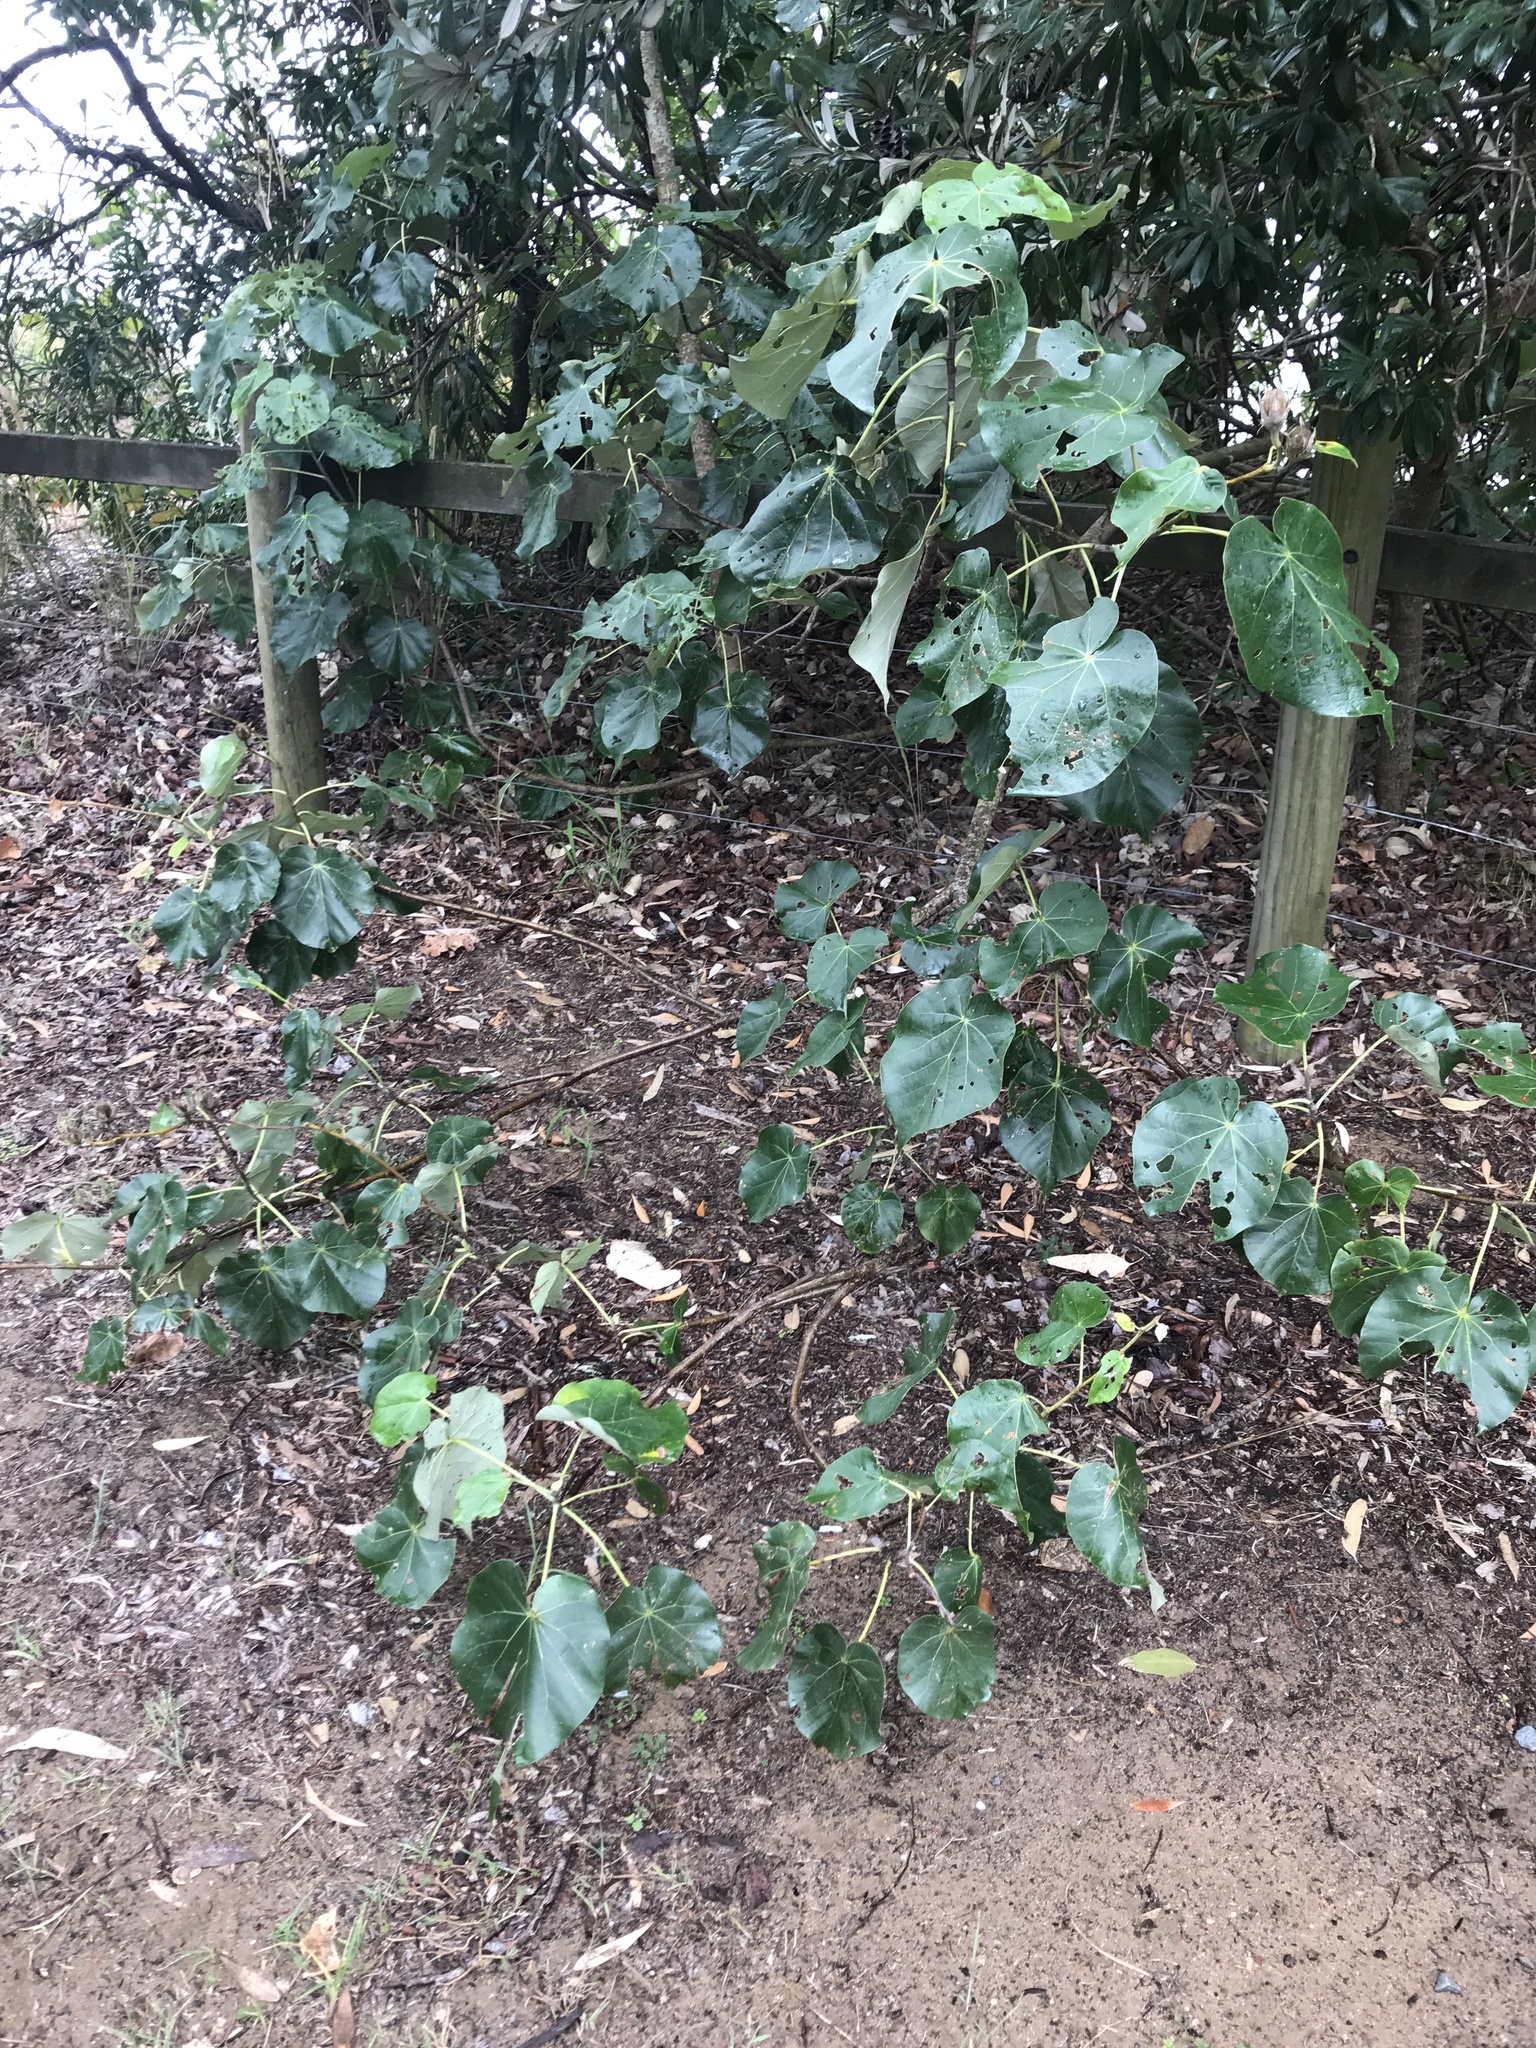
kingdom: Plantae
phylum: Tracheophyta
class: Magnoliopsida
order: Malvales
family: Malvaceae
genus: Talipariti
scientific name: Talipariti tiliaceum
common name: Sea hibiscus
